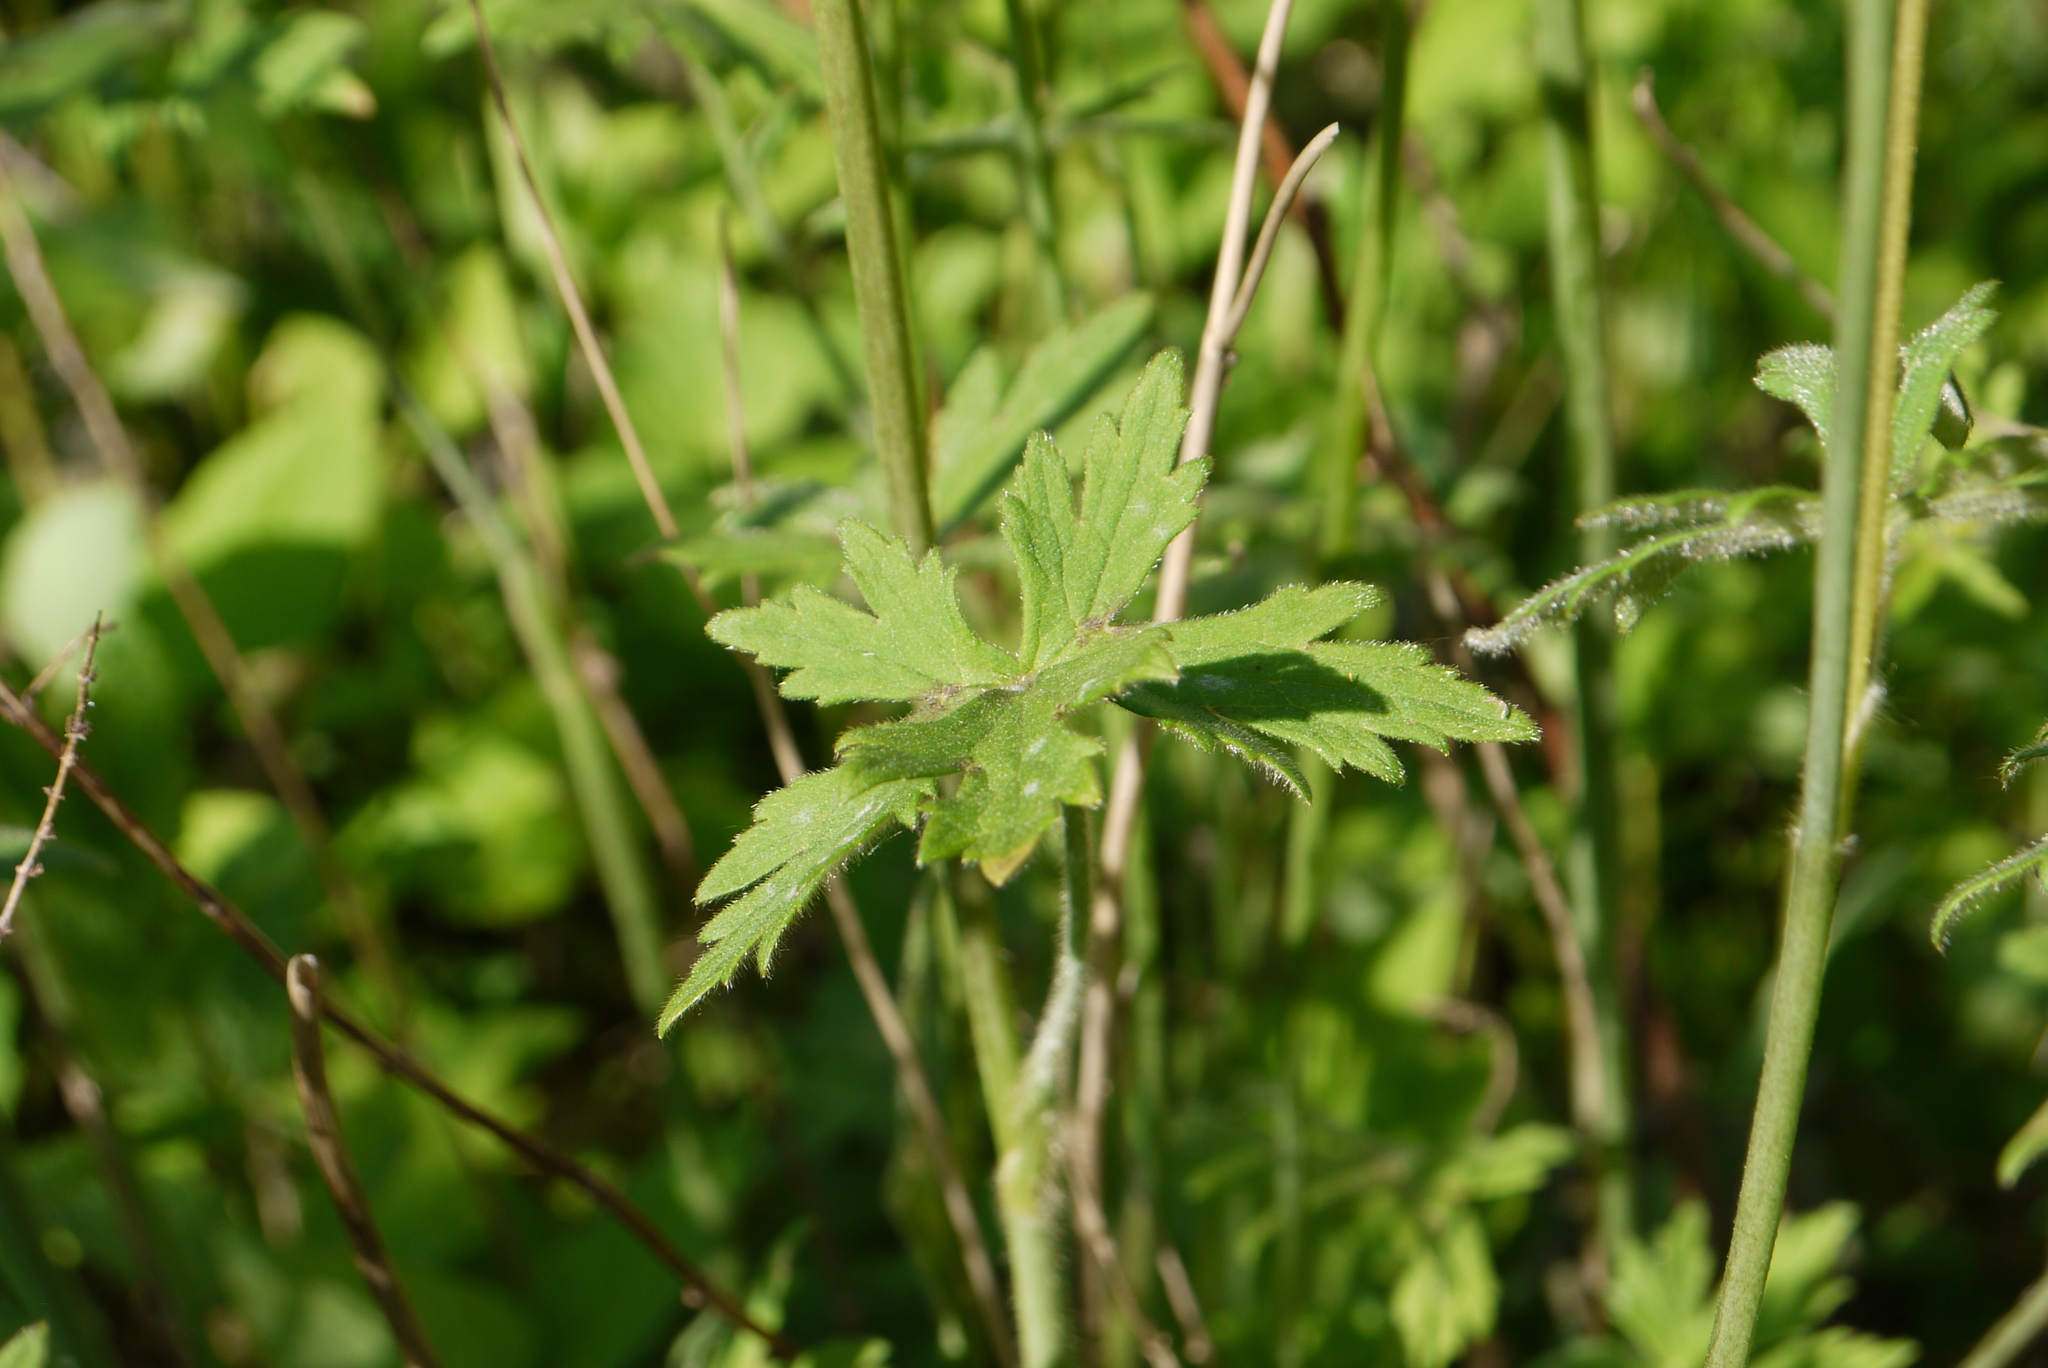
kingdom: Plantae
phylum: Tracheophyta
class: Magnoliopsida
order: Ranunculales
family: Ranunculaceae
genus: Ranunculus
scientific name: Ranunculus acris
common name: Meadow buttercup
